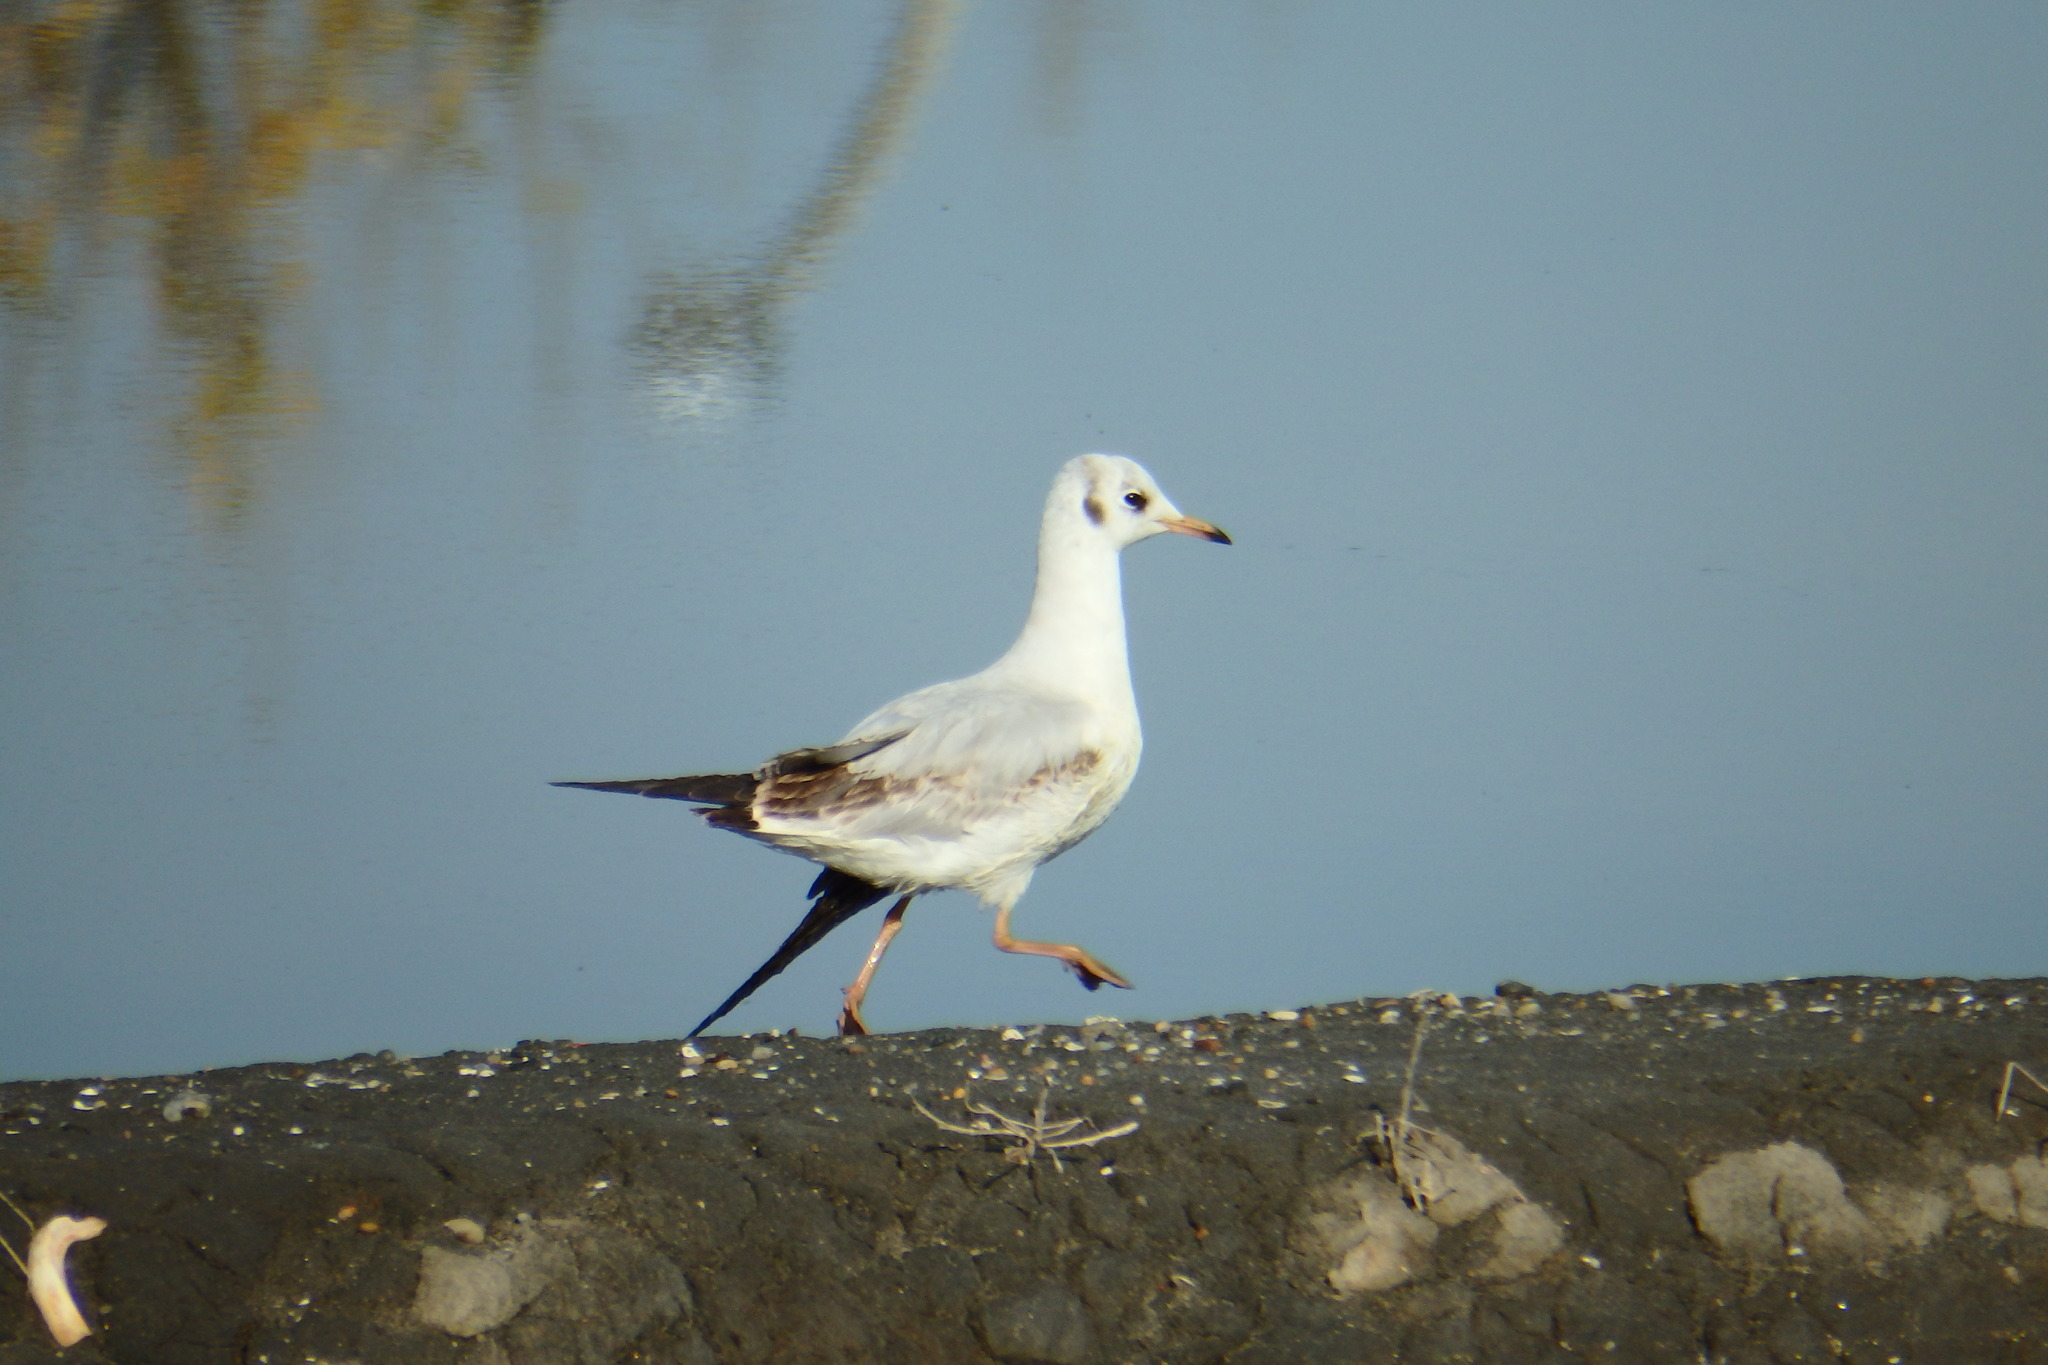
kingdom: Animalia
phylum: Chordata
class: Aves
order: Charadriiformes
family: Laridae
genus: Chroicocephalus
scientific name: Chroicocephalus ridibundus
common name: Black-headed gull
